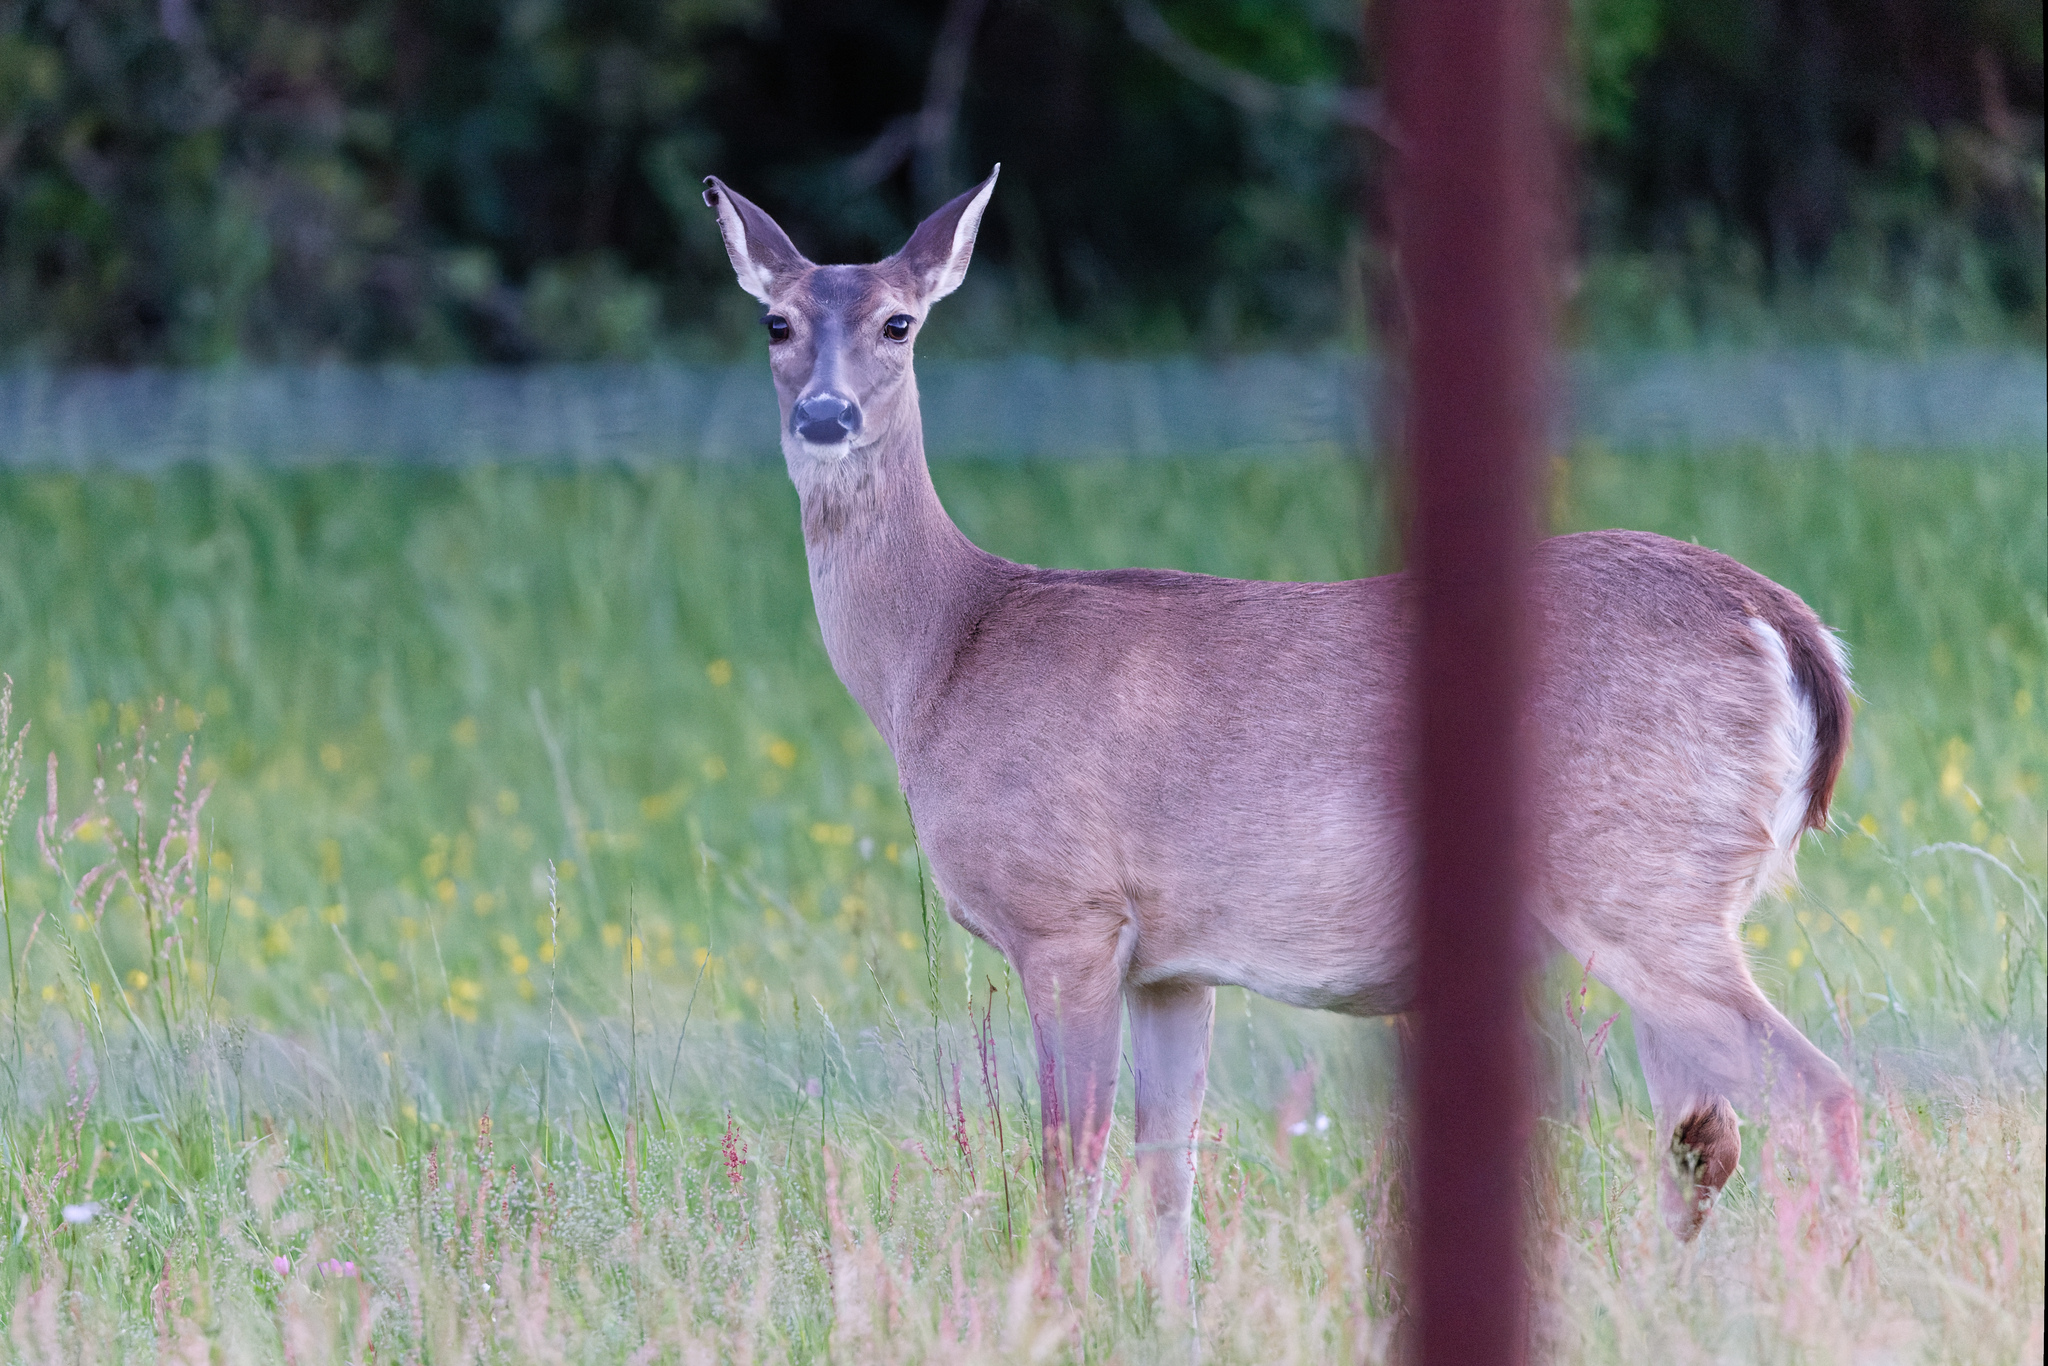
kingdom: Animalia
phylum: Chordata
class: Mammalia
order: Artiodactyla
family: Cervidae
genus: Odocoileus
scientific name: Odocoileus virginianus
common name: White-tailed deer
